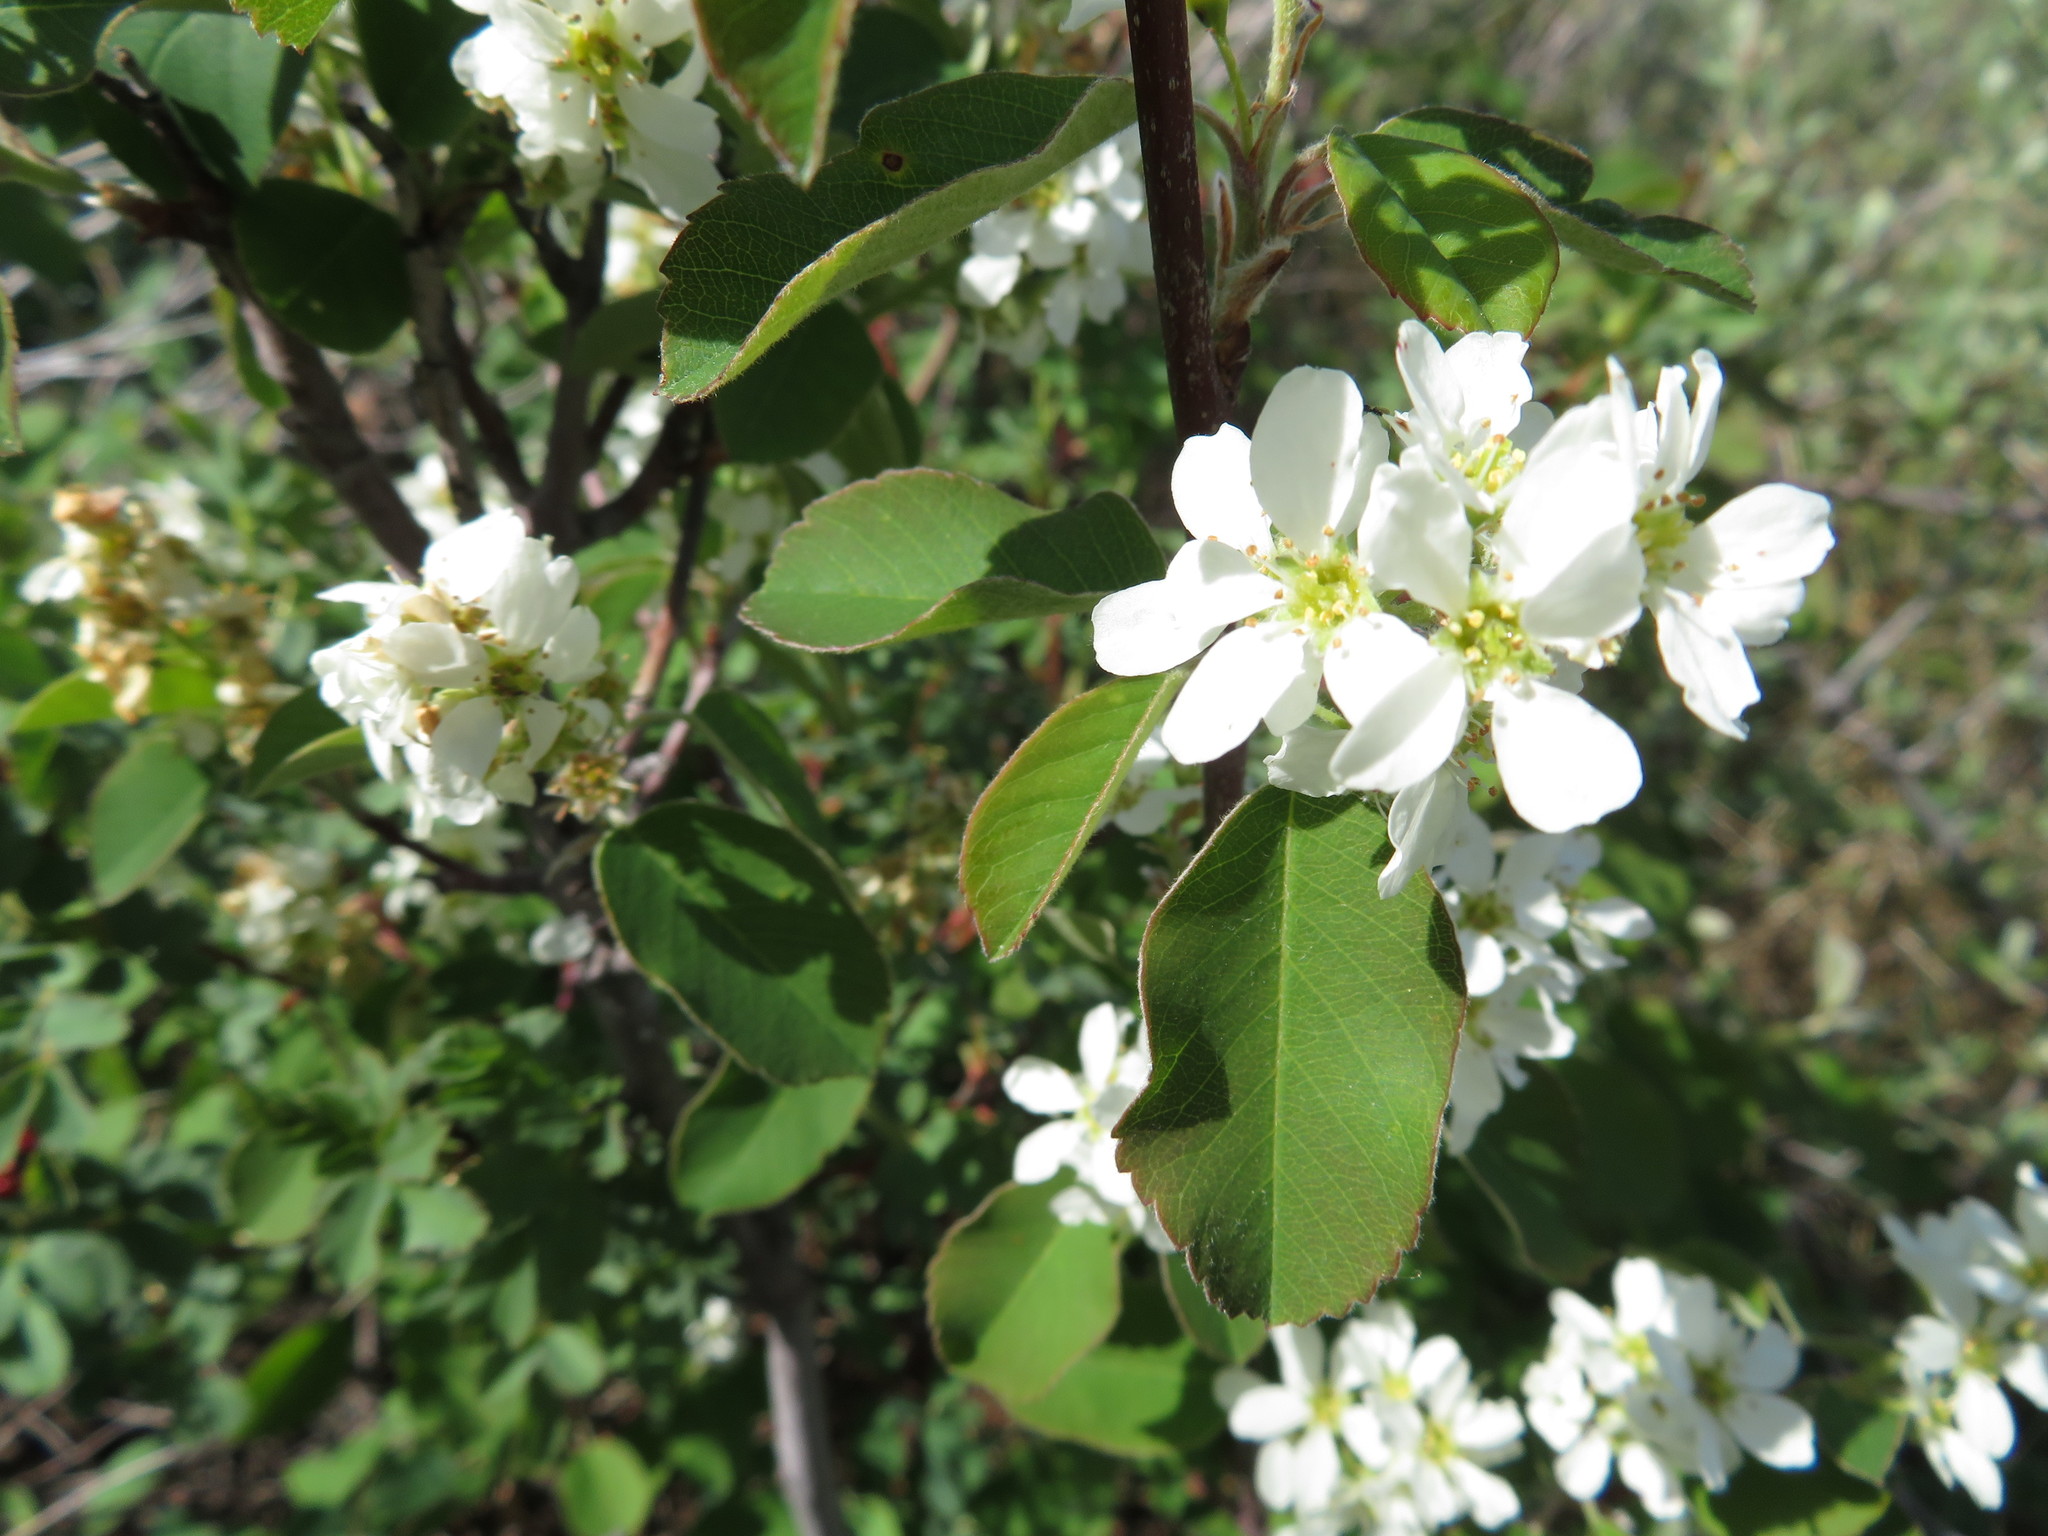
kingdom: Plantae
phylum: Tracheophyta
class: Magnoliopsida
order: Rosales
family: Rosaceae
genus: Amelanchier
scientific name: Amelanchier alnifolia
